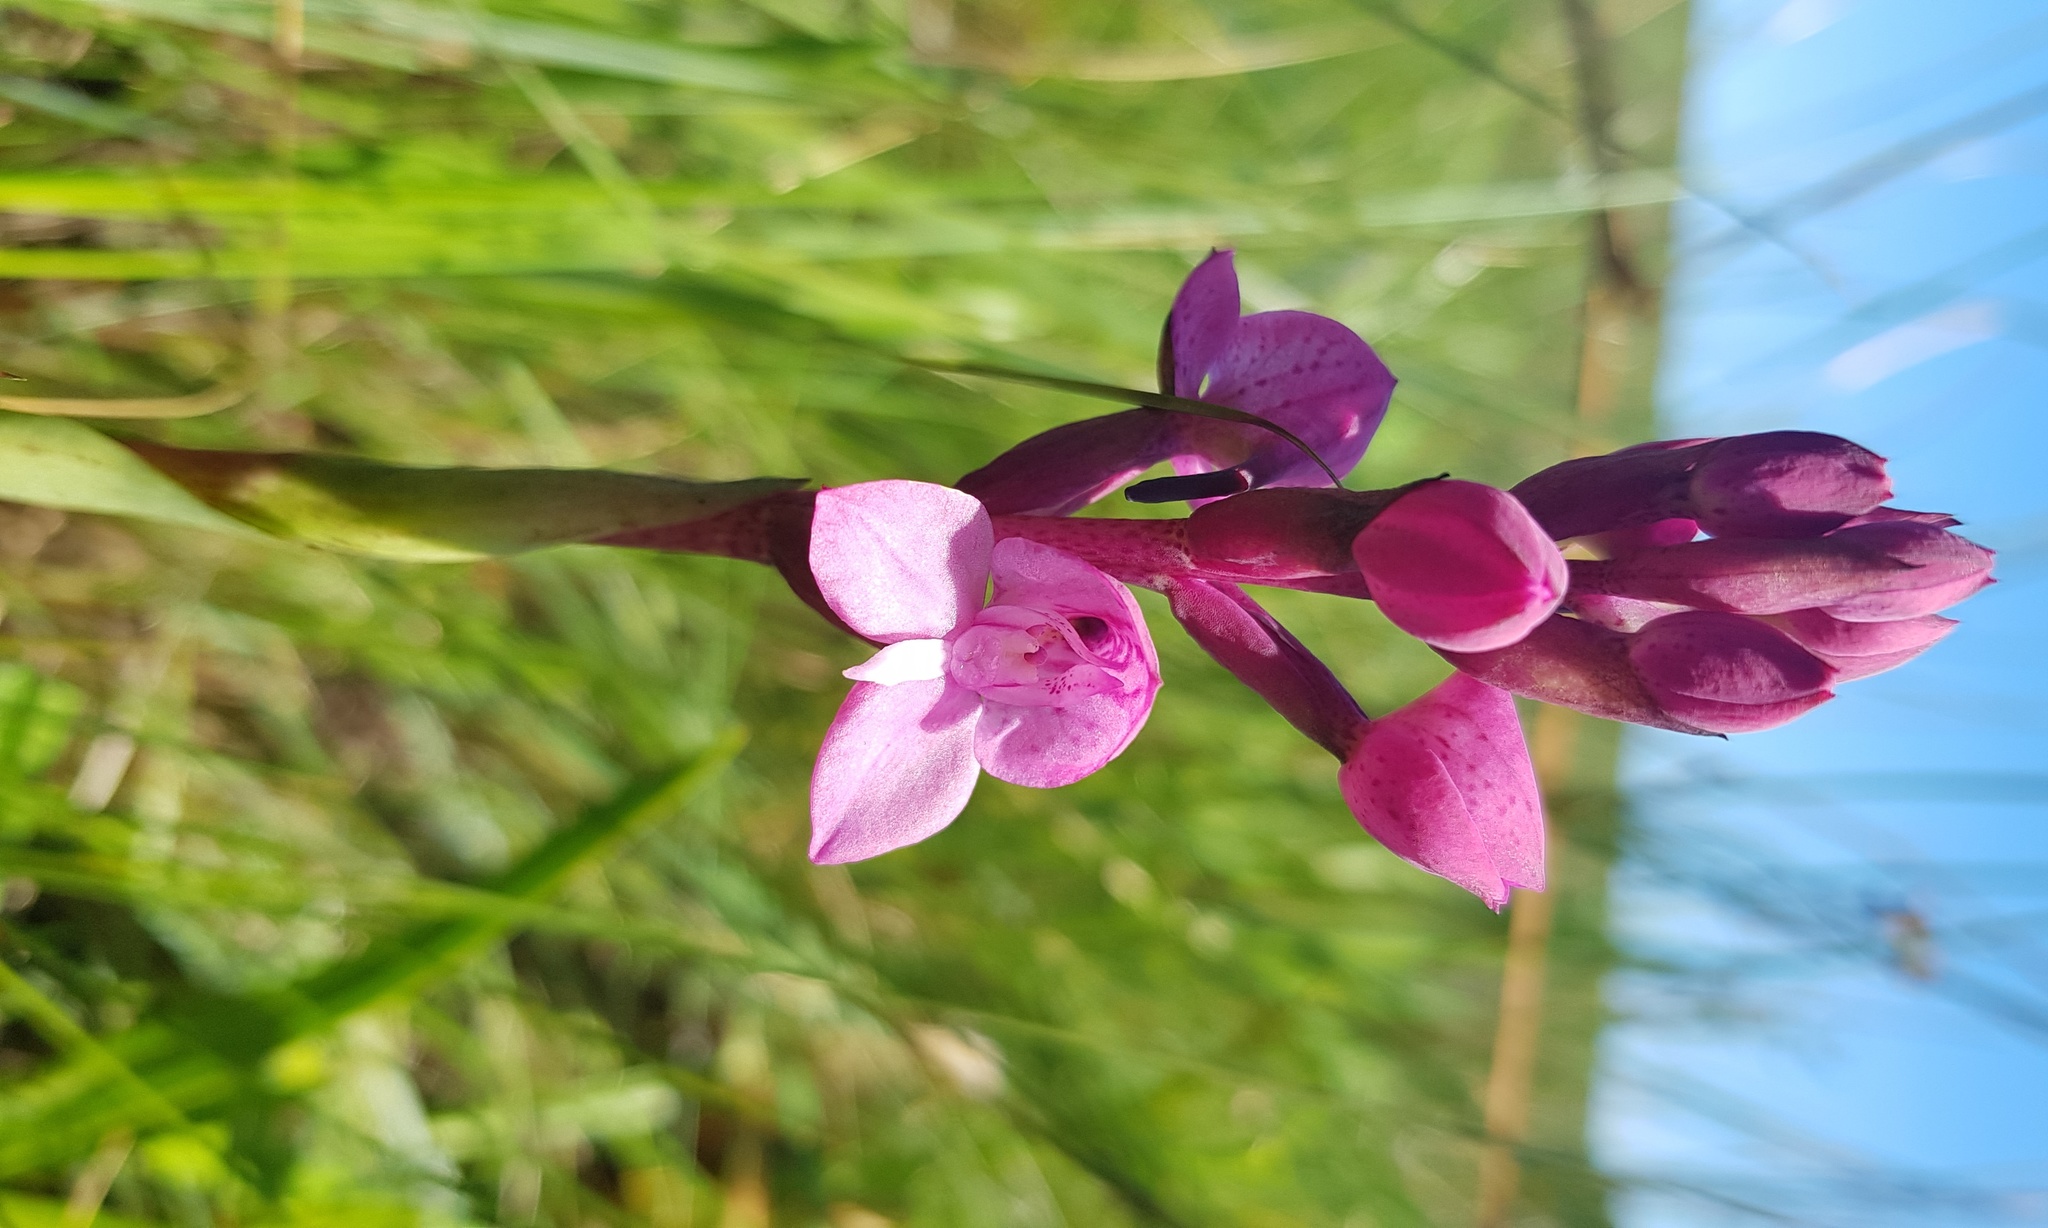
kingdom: Plantae
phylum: Tracheophyta
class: Liliopsida
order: Asparagales
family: Orchidaceae
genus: Disa
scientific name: Disa caffra
